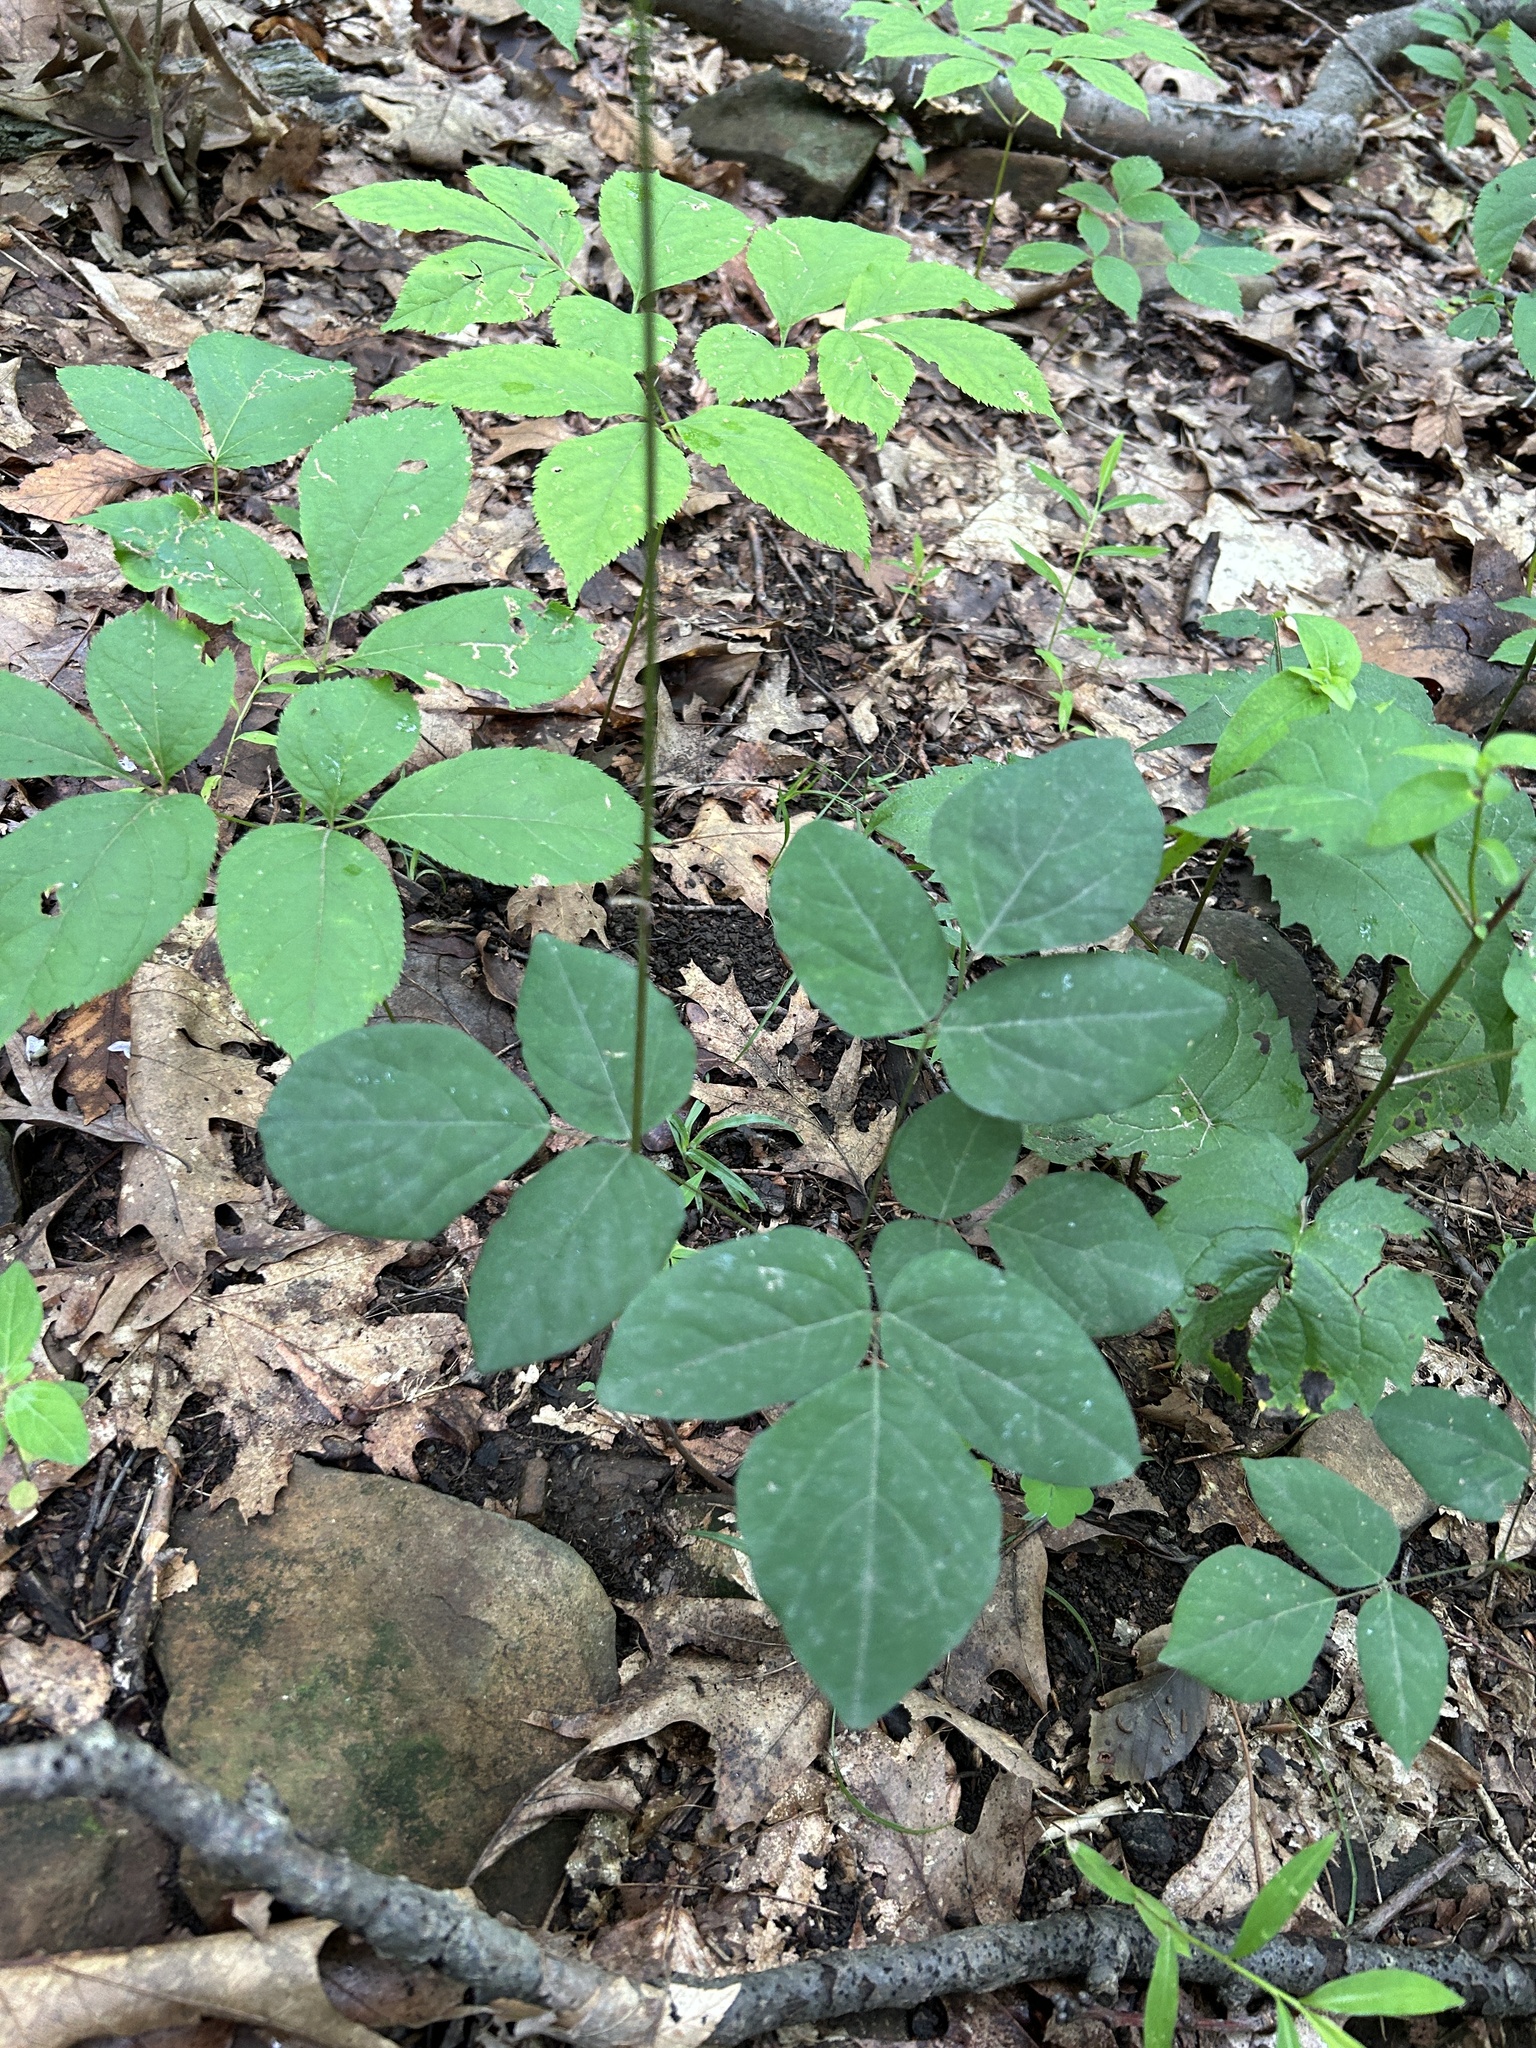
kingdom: Plantae
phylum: Tracheophyta
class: Magnoliopsida
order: Fabales
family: Fabaceae
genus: Hylodesmum
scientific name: Hylodesmum nudiflorum
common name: Bare-stemmed tick-trefoil
